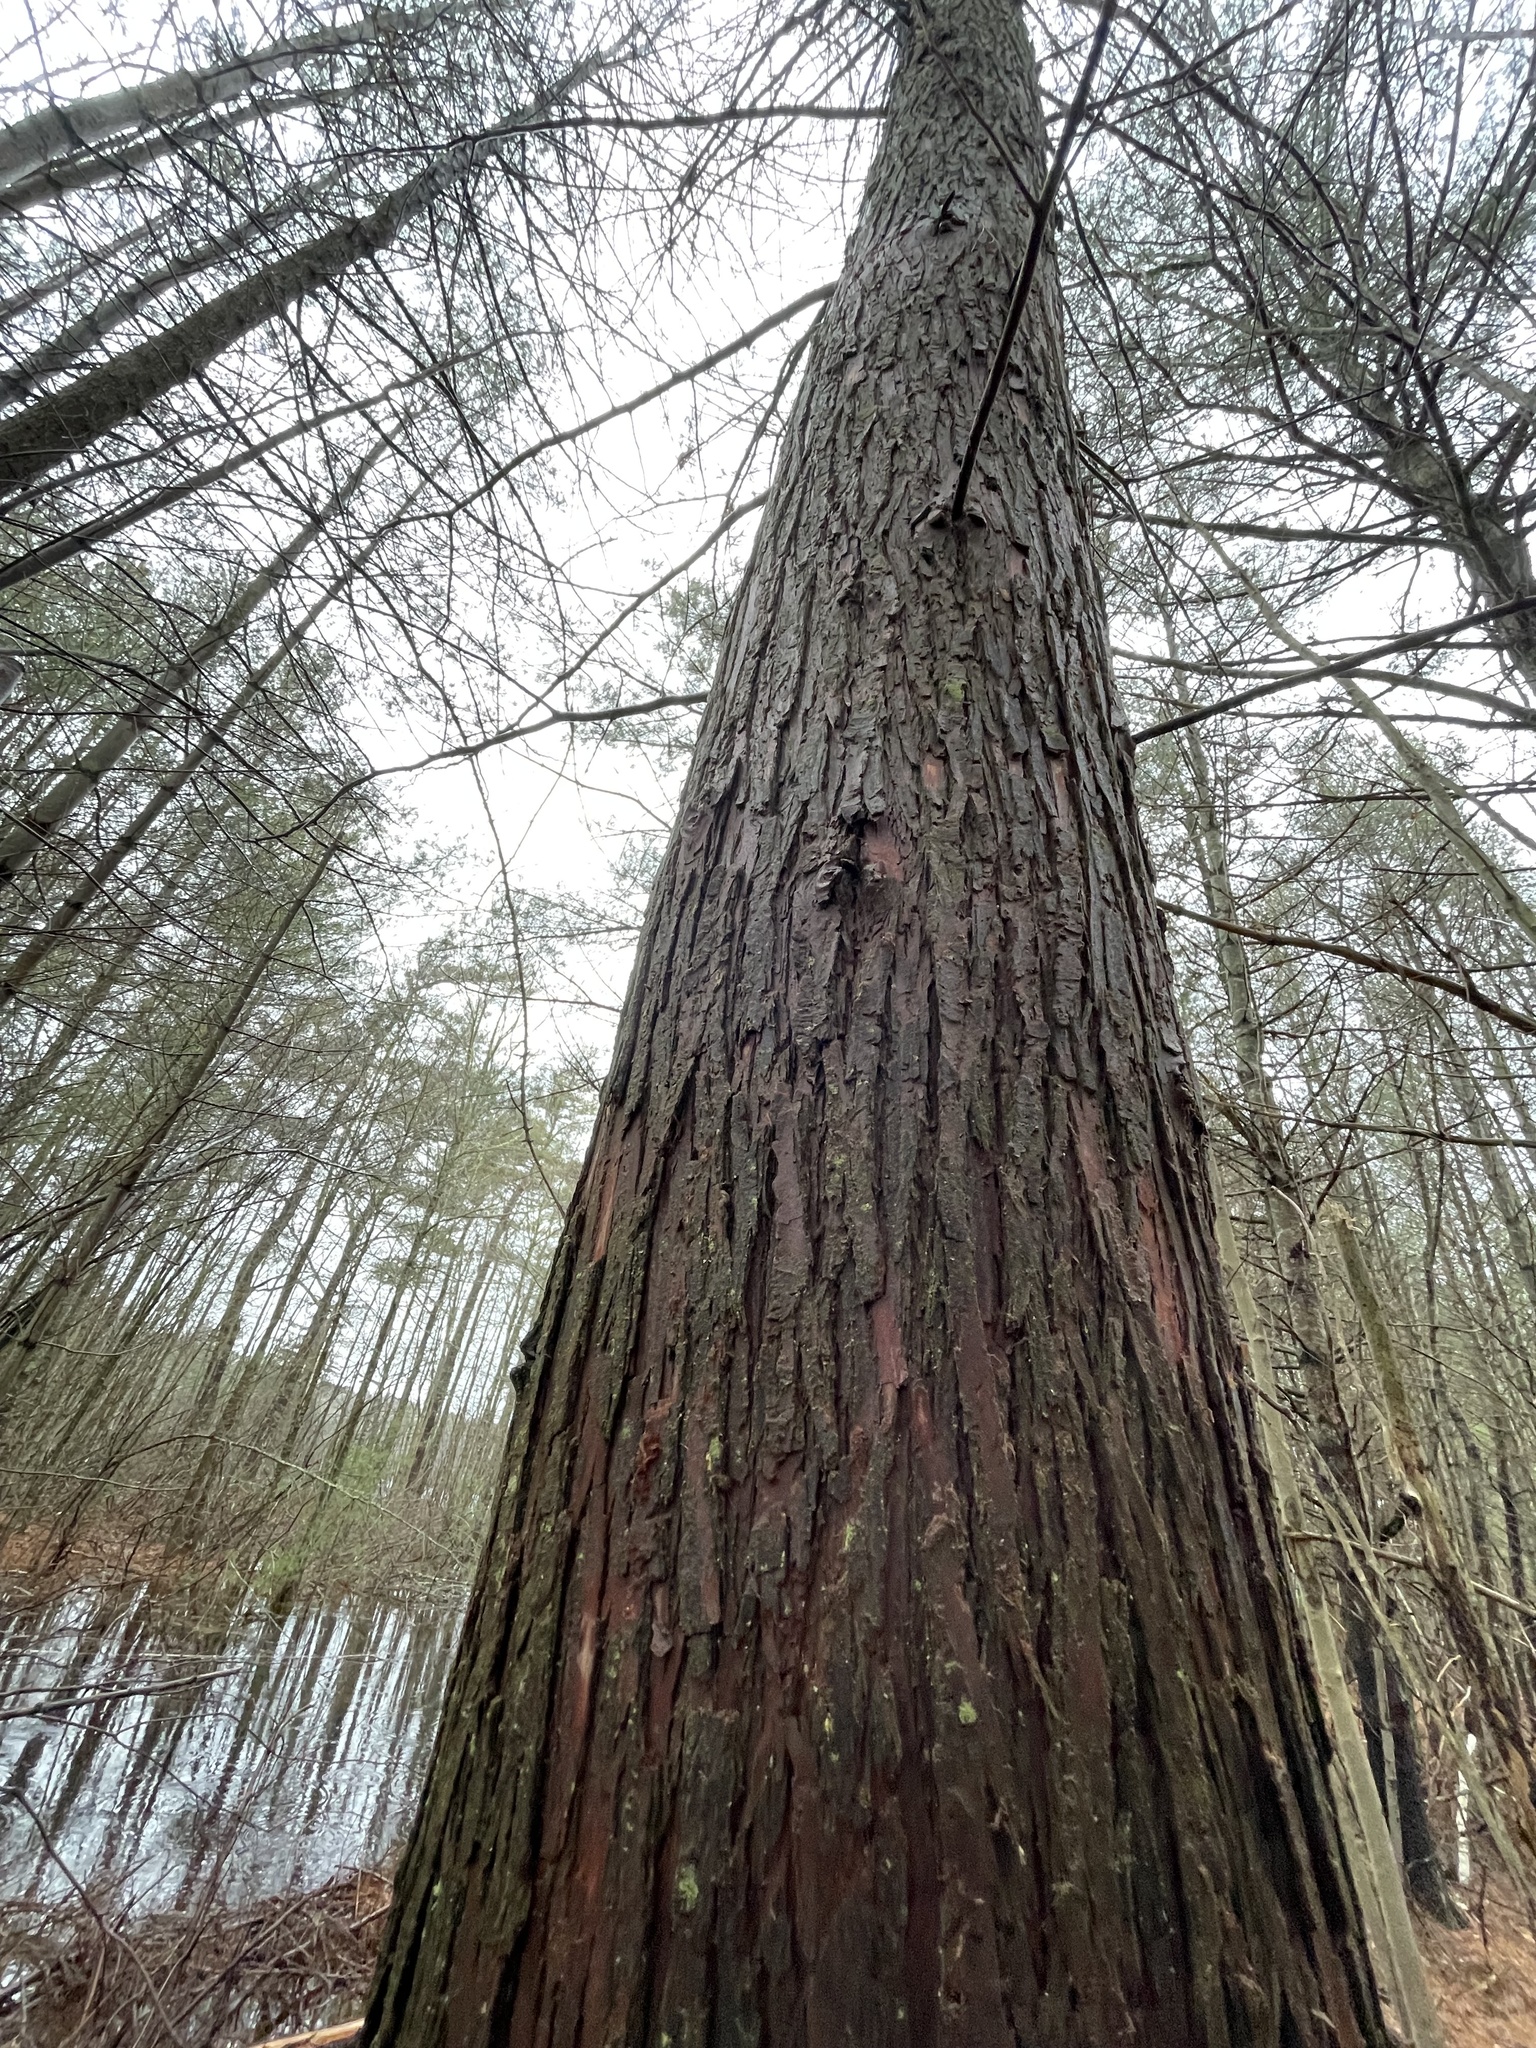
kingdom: Plantae
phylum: Tracheophyta
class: Pinopsida
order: Pinales
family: Cupressaceae
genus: Chamaecyparis
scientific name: Chamaecyparis thyoides
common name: Atlantic white cedar
